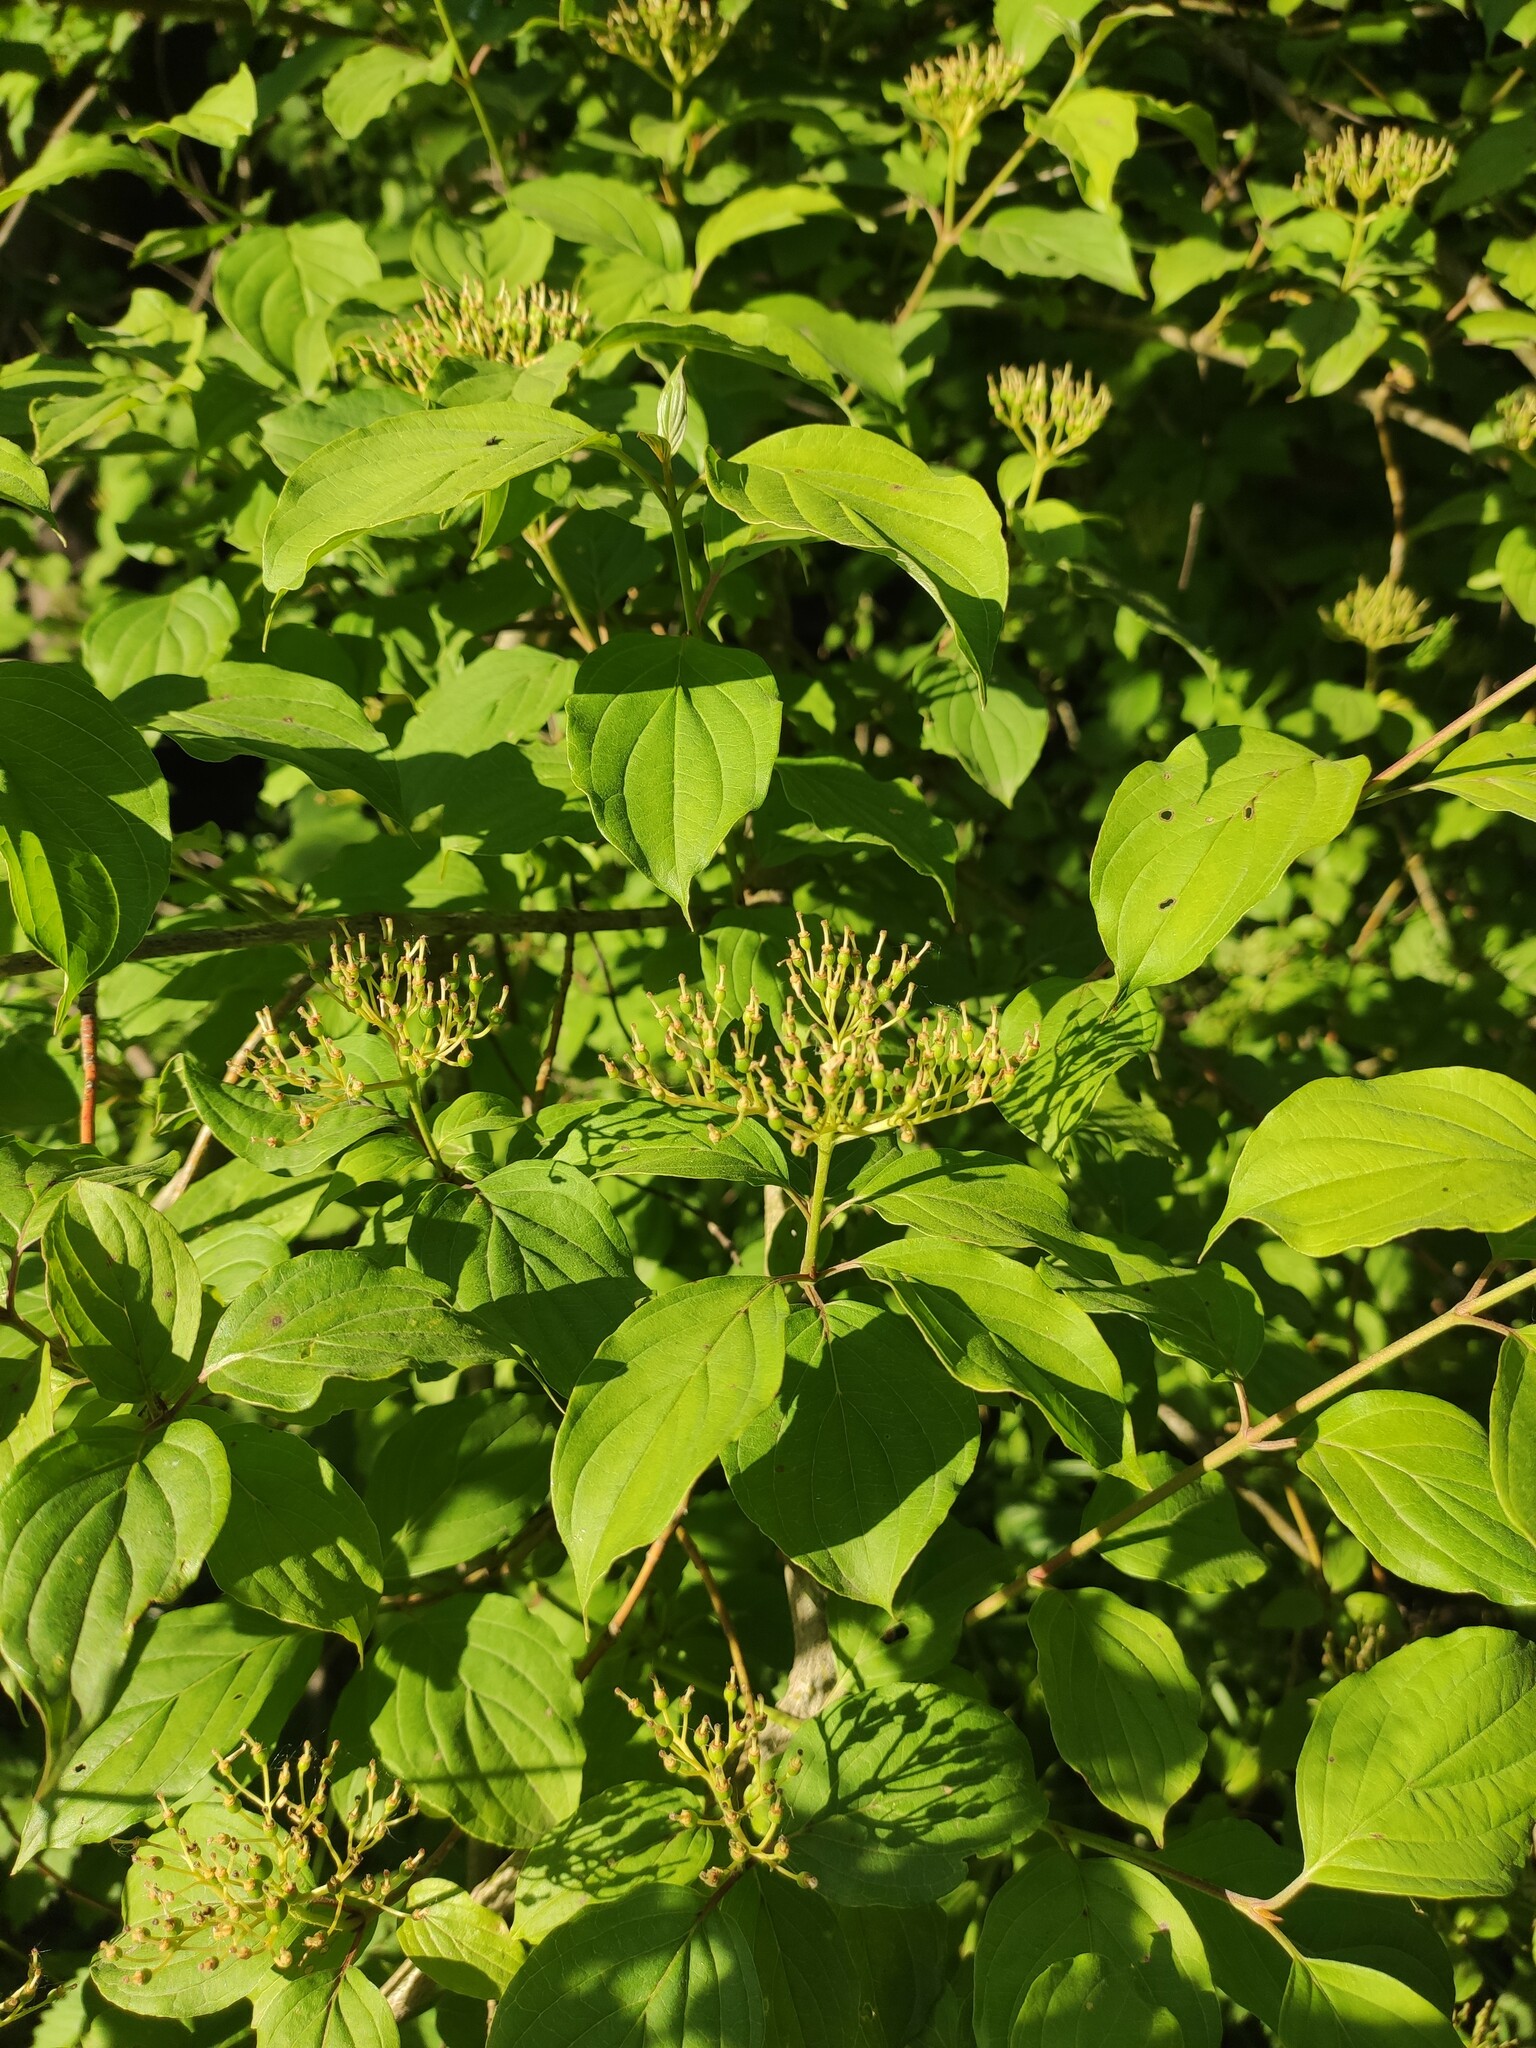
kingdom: Plantae
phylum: Tracheophyta
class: Magnoliopsida
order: Cornales
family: Cornaceae
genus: Cornus
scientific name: Cornus sanguinea
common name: Dogwood
